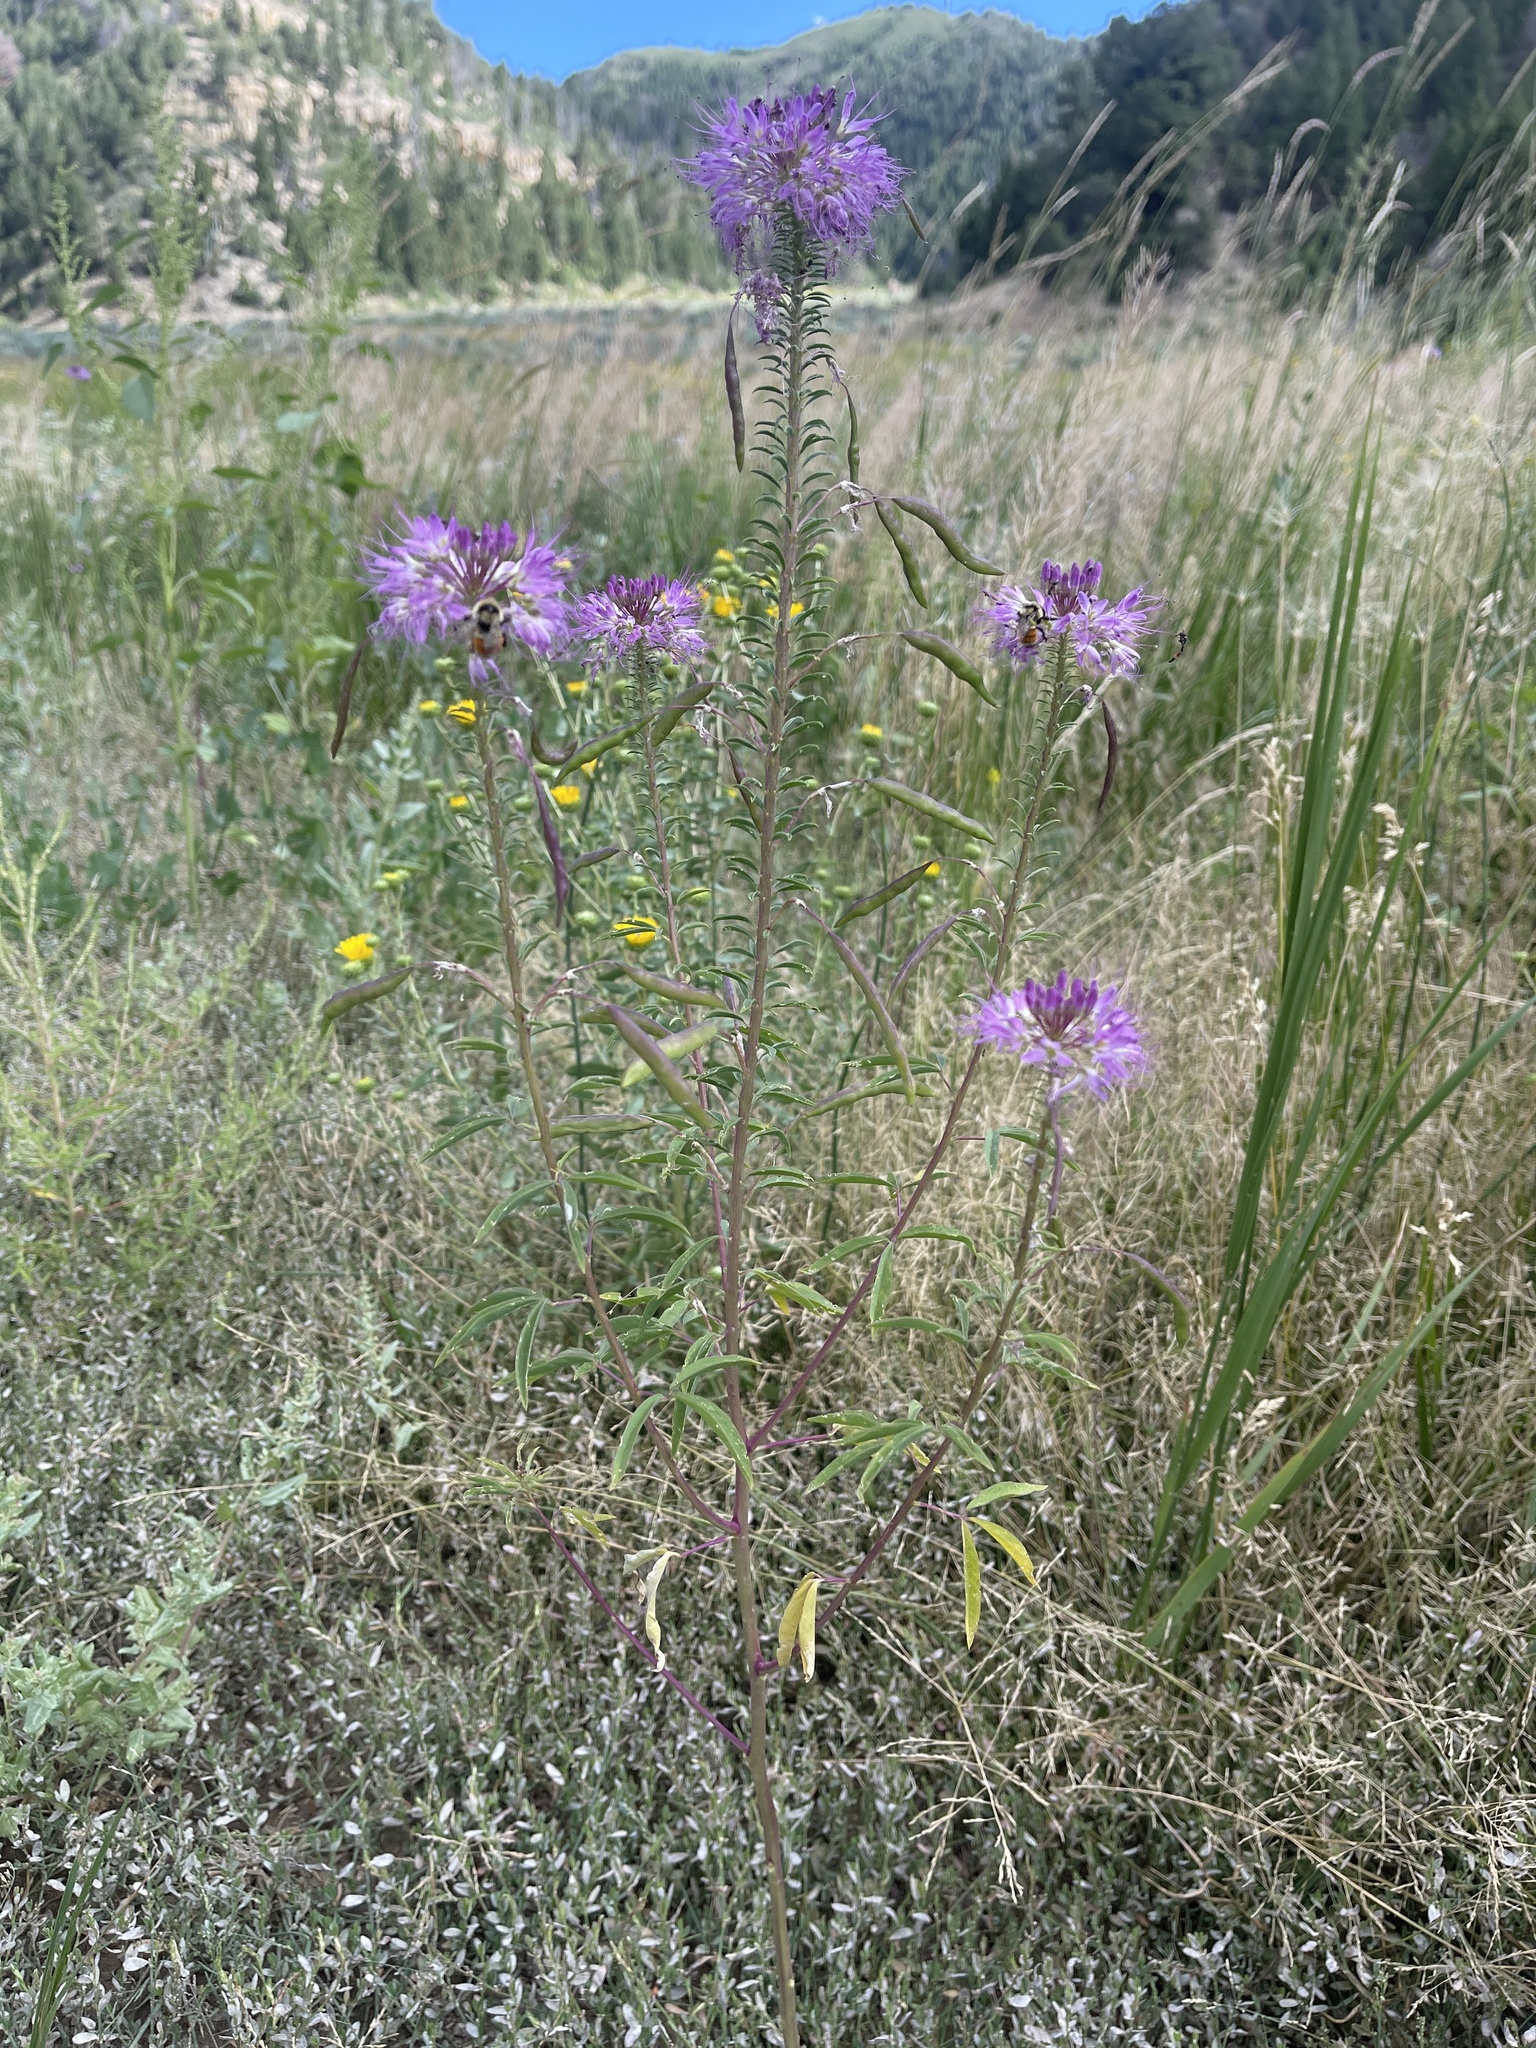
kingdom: Plantae
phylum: Tracheophyta
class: Magnoliopsida
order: Brassicales
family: Cleomaceae
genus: Cleomella
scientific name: Cleomella serrulata
